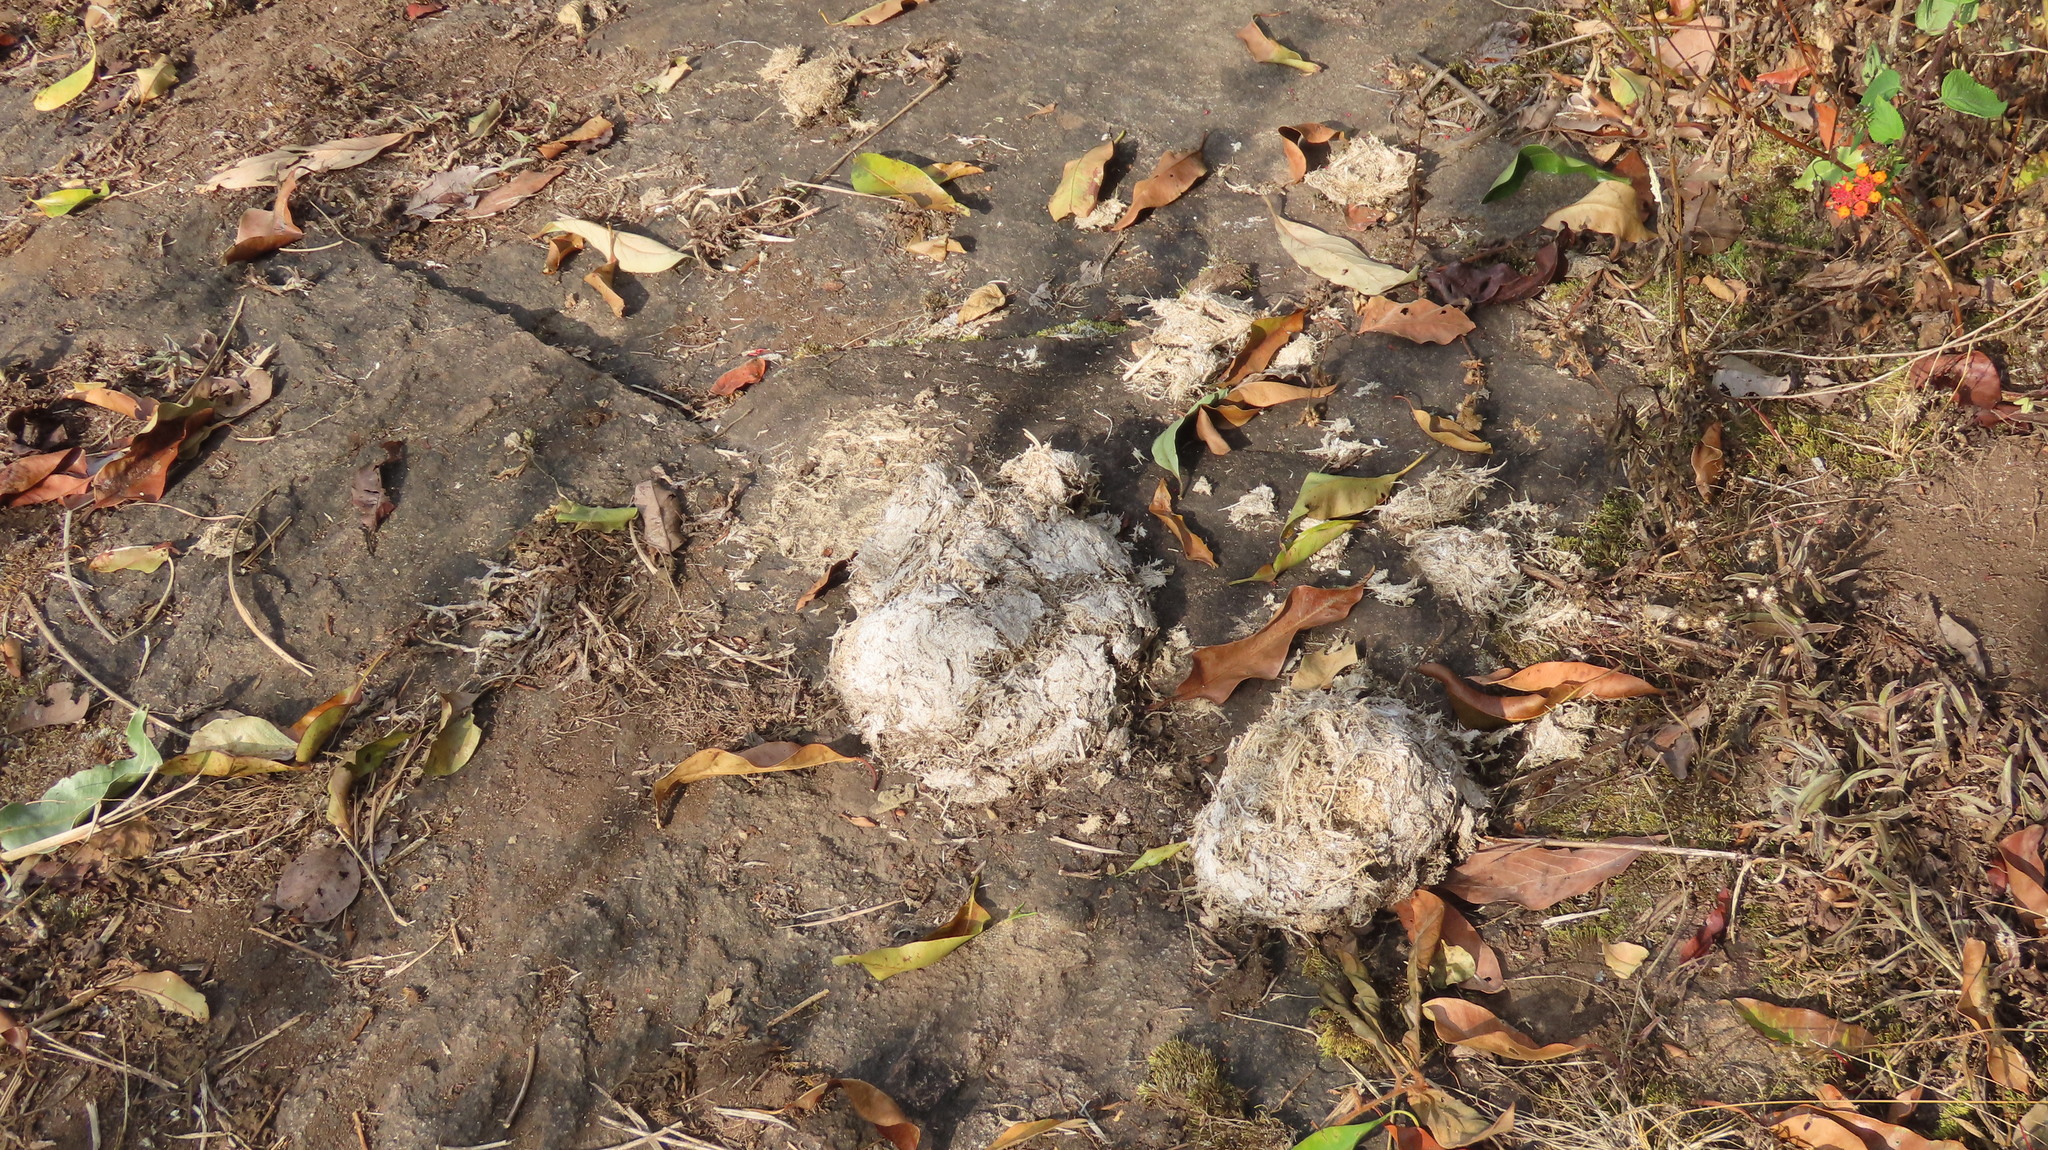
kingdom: Animalia
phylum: Chordata
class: Mammalia
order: Proboscidea
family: Elephantidae
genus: Elephas
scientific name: Elephas maximus
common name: Asian elephant
